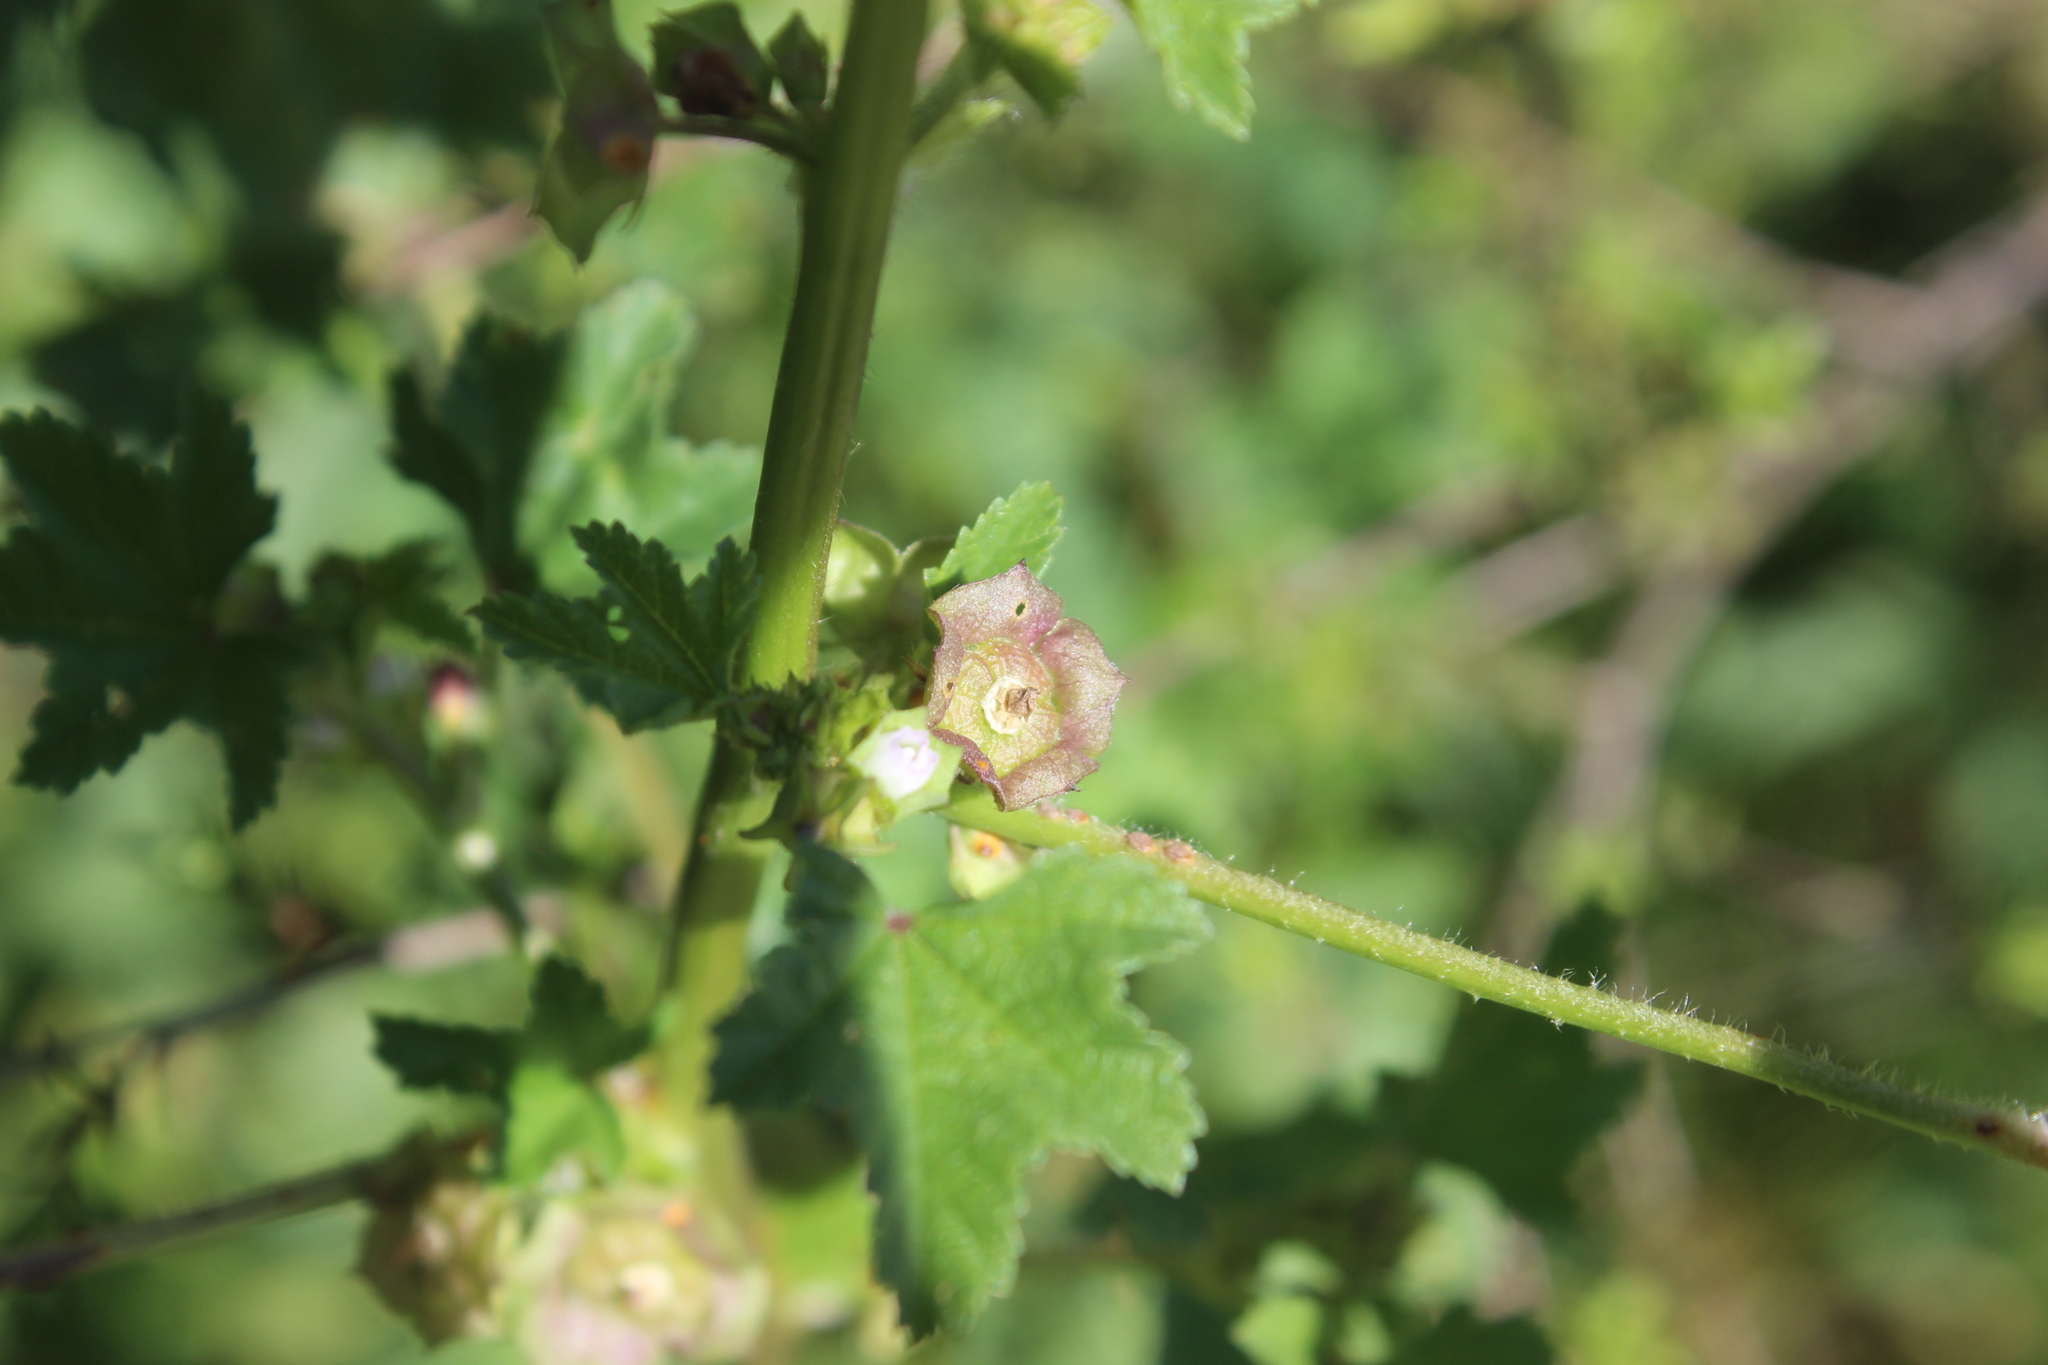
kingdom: Plantae
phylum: Tracheophyta
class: Magnoliopsida
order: Malvales
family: Malvaceae
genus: Malva
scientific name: Malva parviflora
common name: Least mallow
